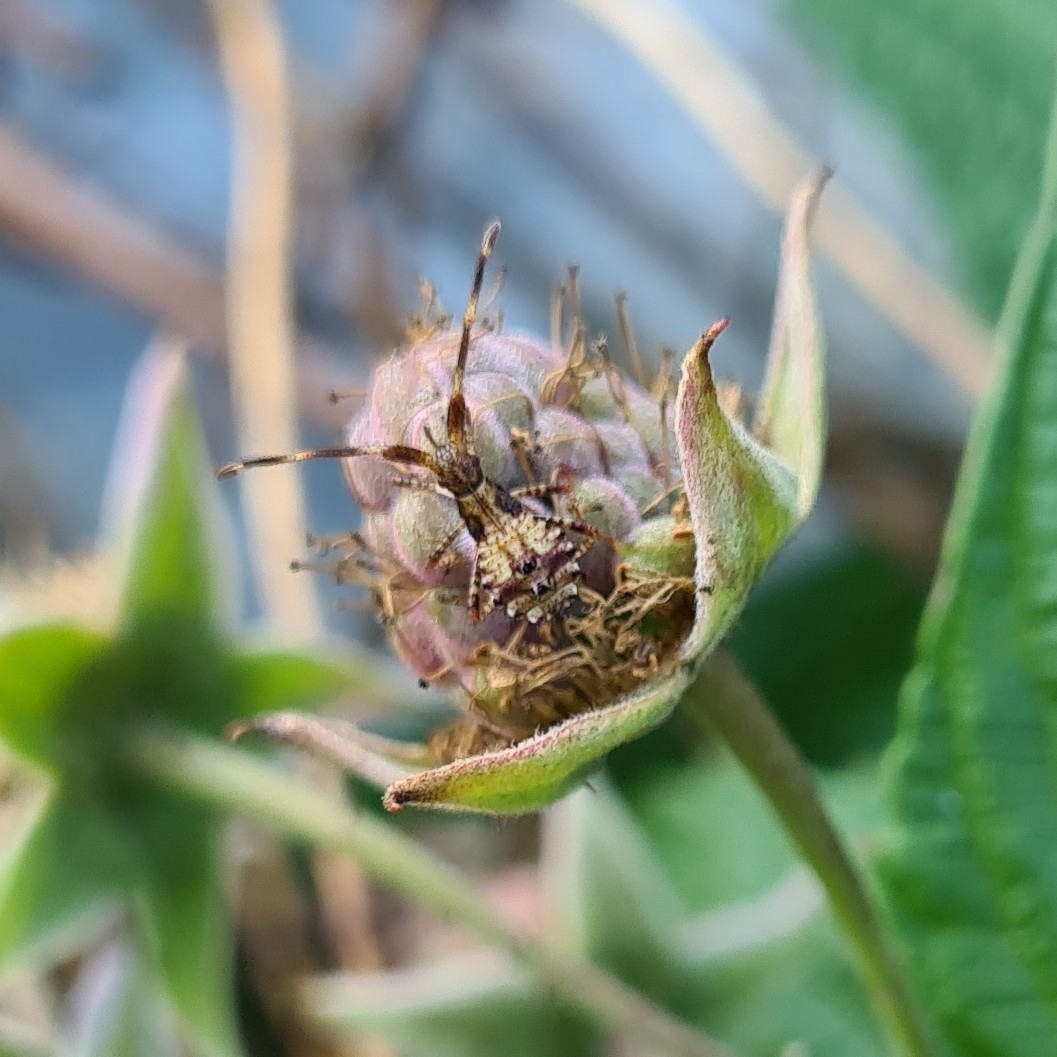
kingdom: Animalia
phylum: Arthropoda
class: Insecta
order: Hemiptera
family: Coreidae
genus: Coreus
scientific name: Coreus marginatus
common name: Dock bug
